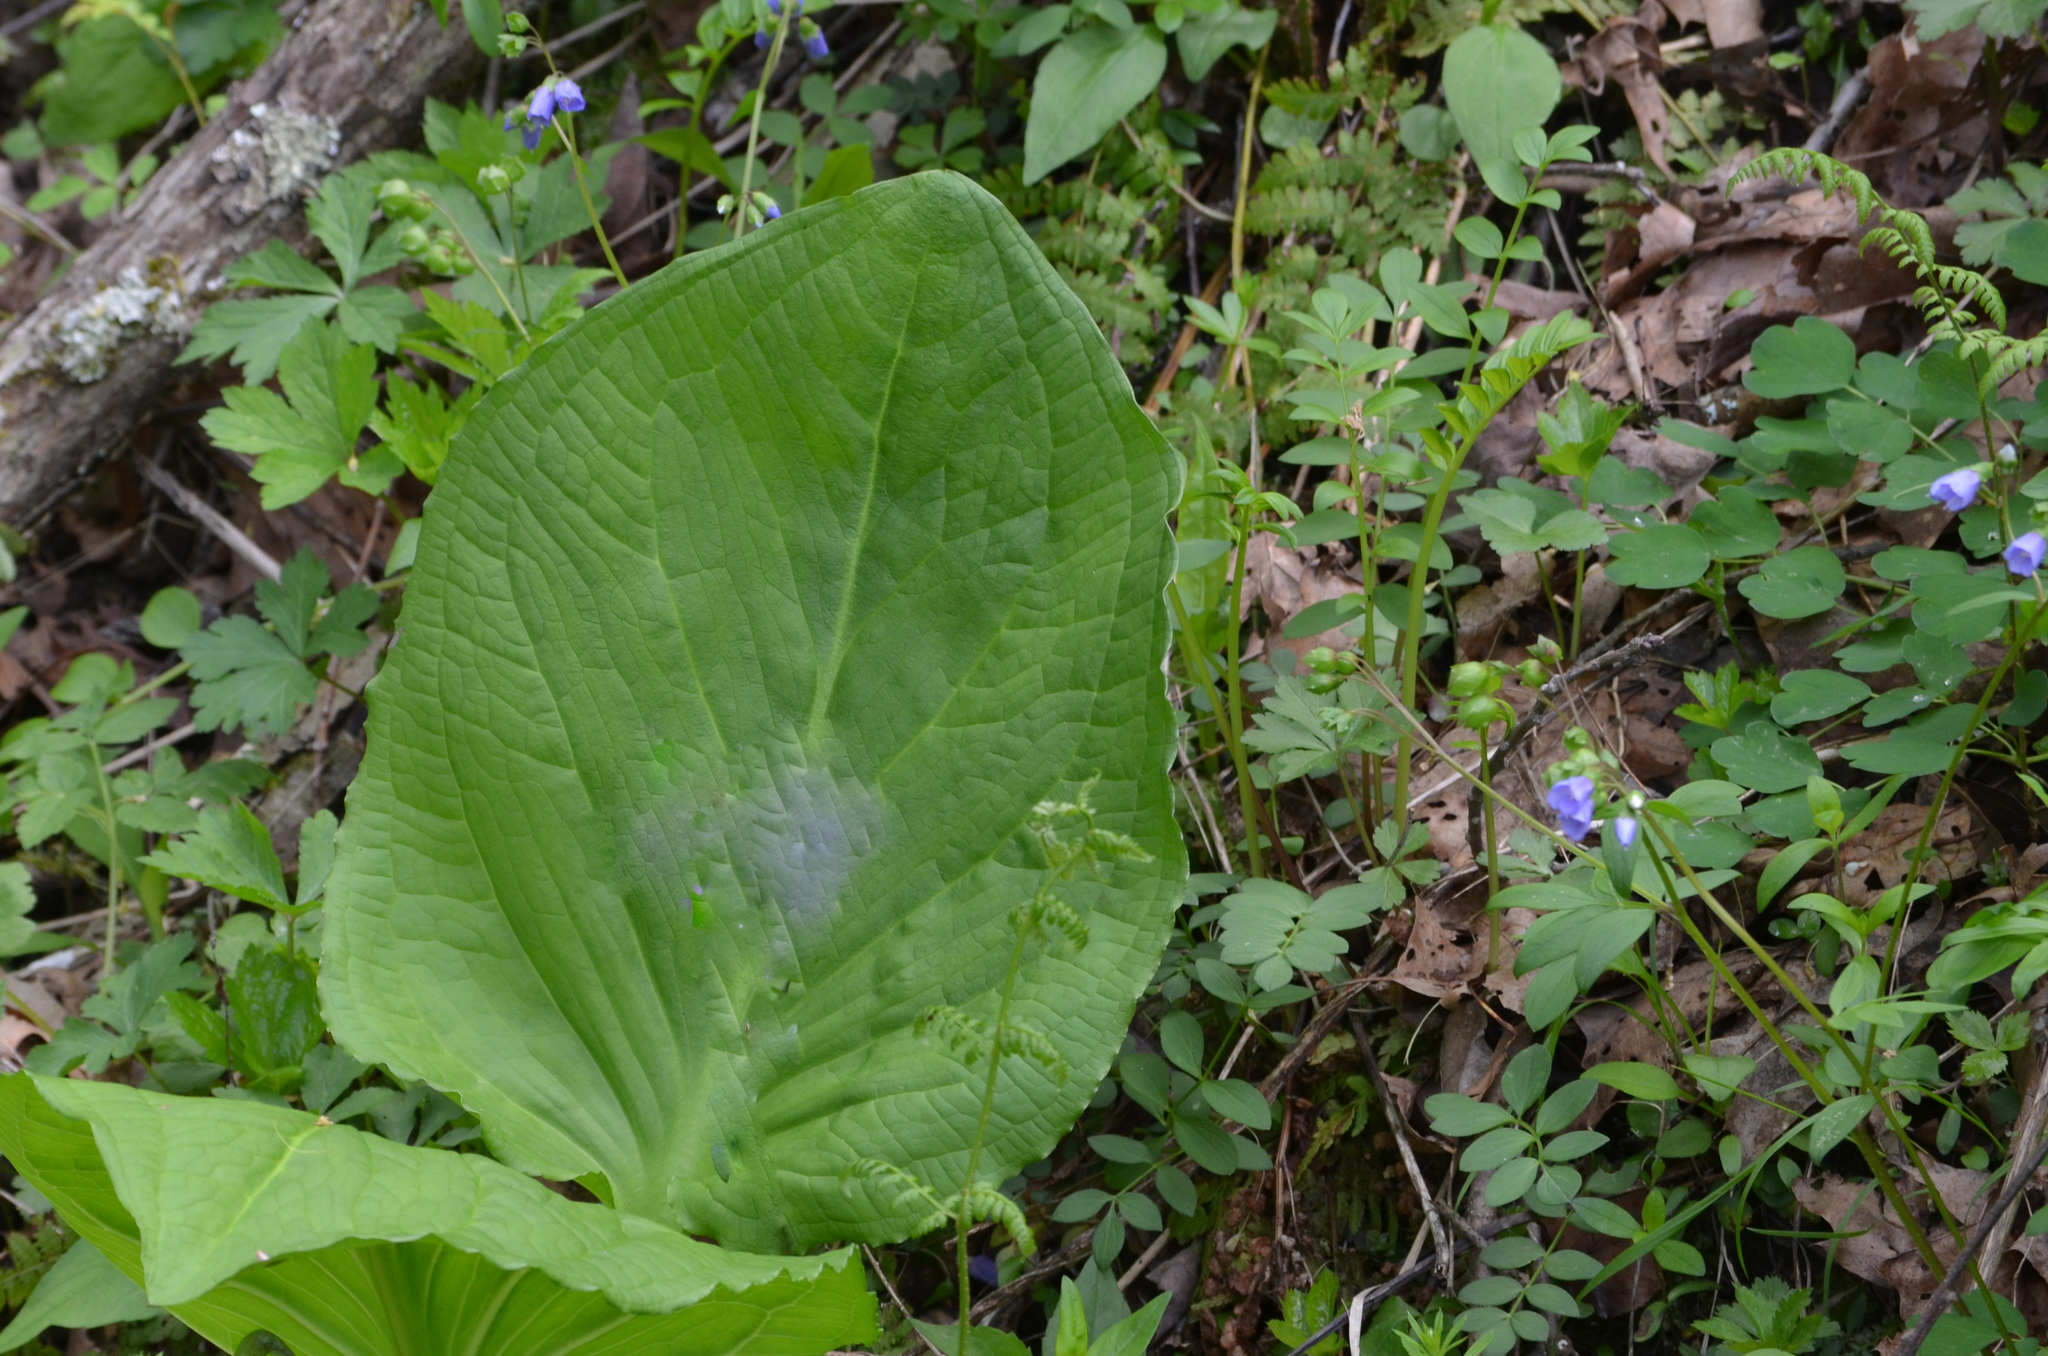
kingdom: Plantae
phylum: Tracheophyta
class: Magnoliopsida
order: Ericales
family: Polemoniaceae
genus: Polemonium
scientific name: Polemonium reptans
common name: Creeping jacob's-ladder
